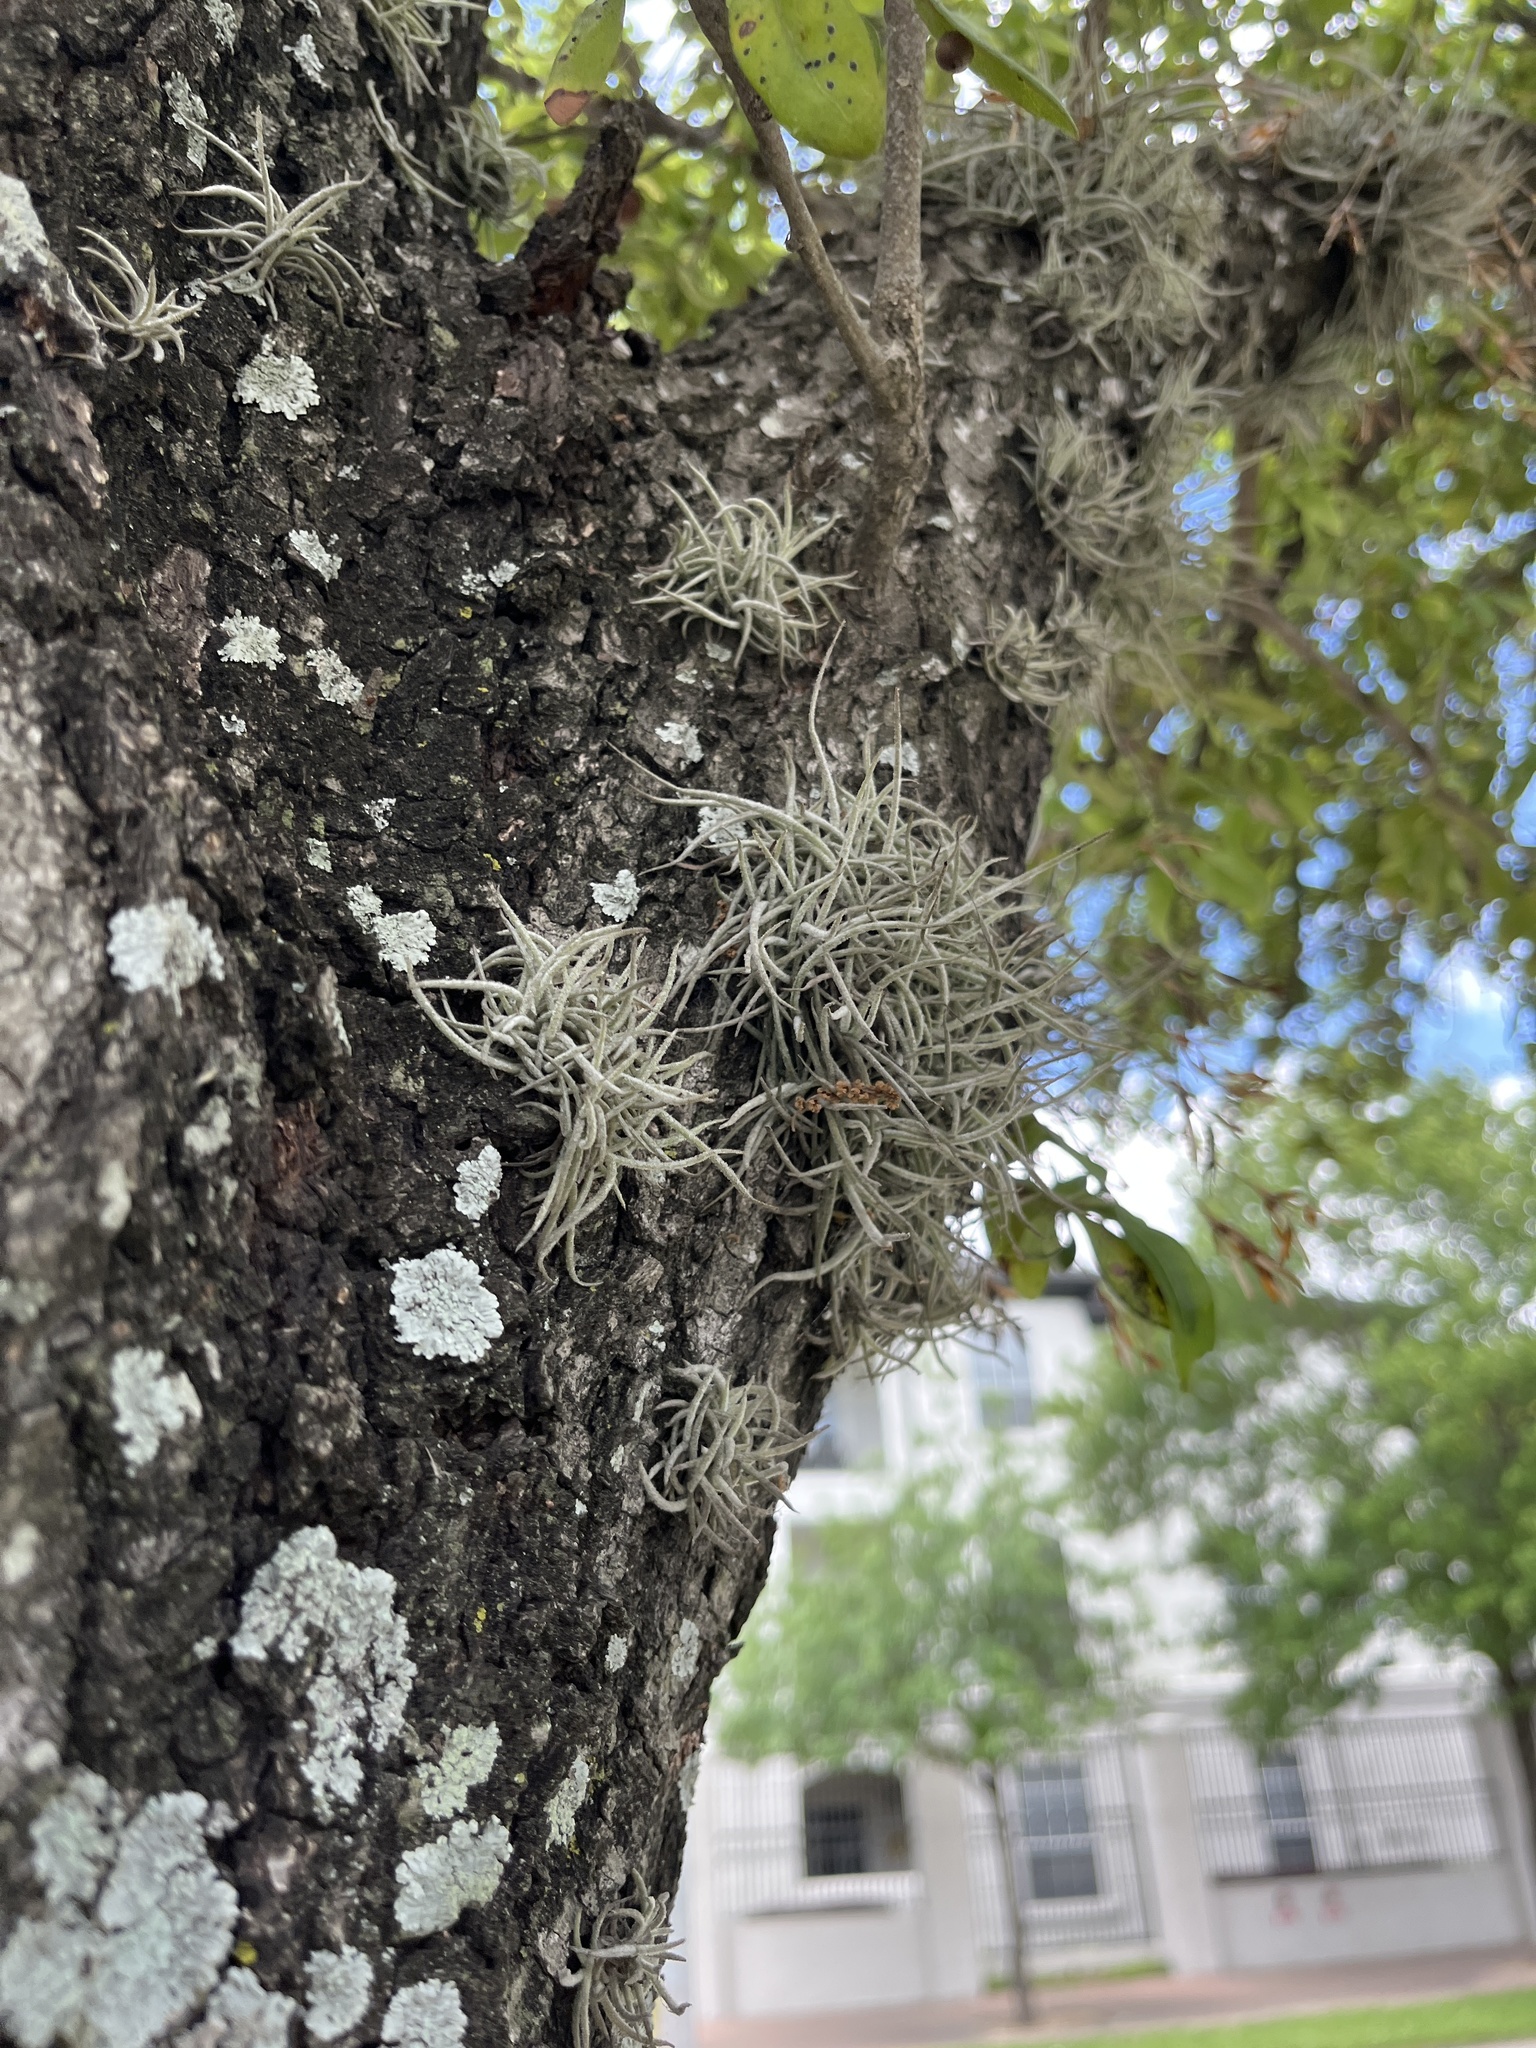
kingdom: Plantae
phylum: Tracheophyta
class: Liliopsida
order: Poales
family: Bromeliaceae
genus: Tillandsia
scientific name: Tillandsia recurvata
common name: Small ballmoss
